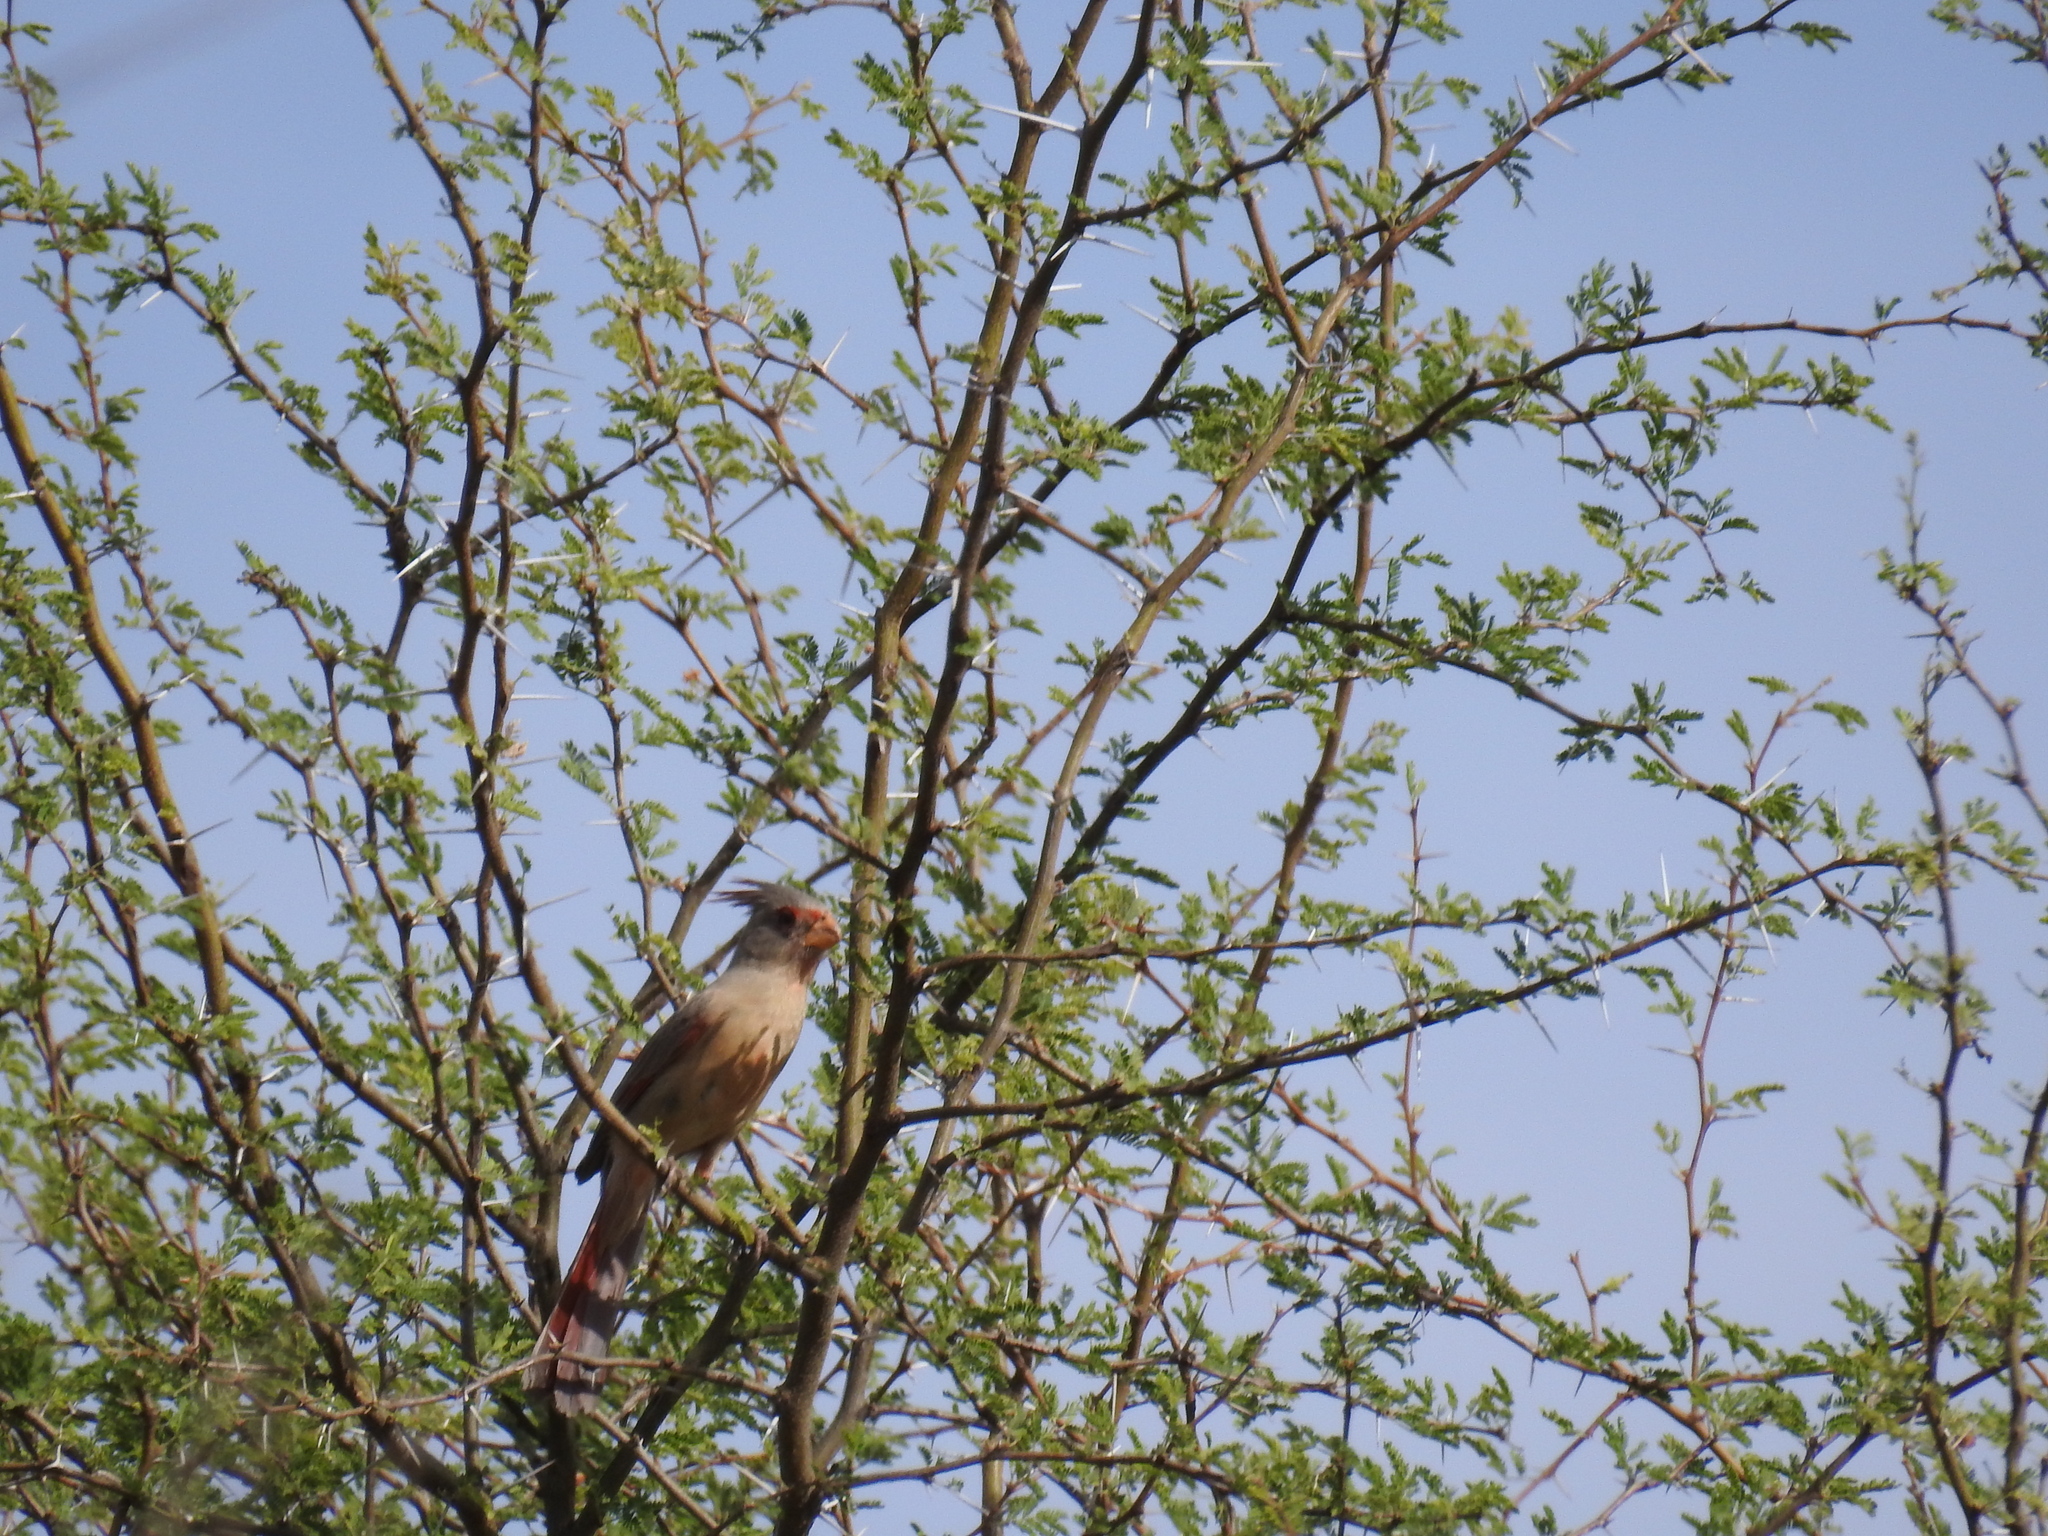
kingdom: Animalia
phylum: Chordata
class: Aves
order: Passeriformes
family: Cardinalidae
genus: Cardinalis
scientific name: Cardinalis sinuatus
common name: Pyrrhuloxia
